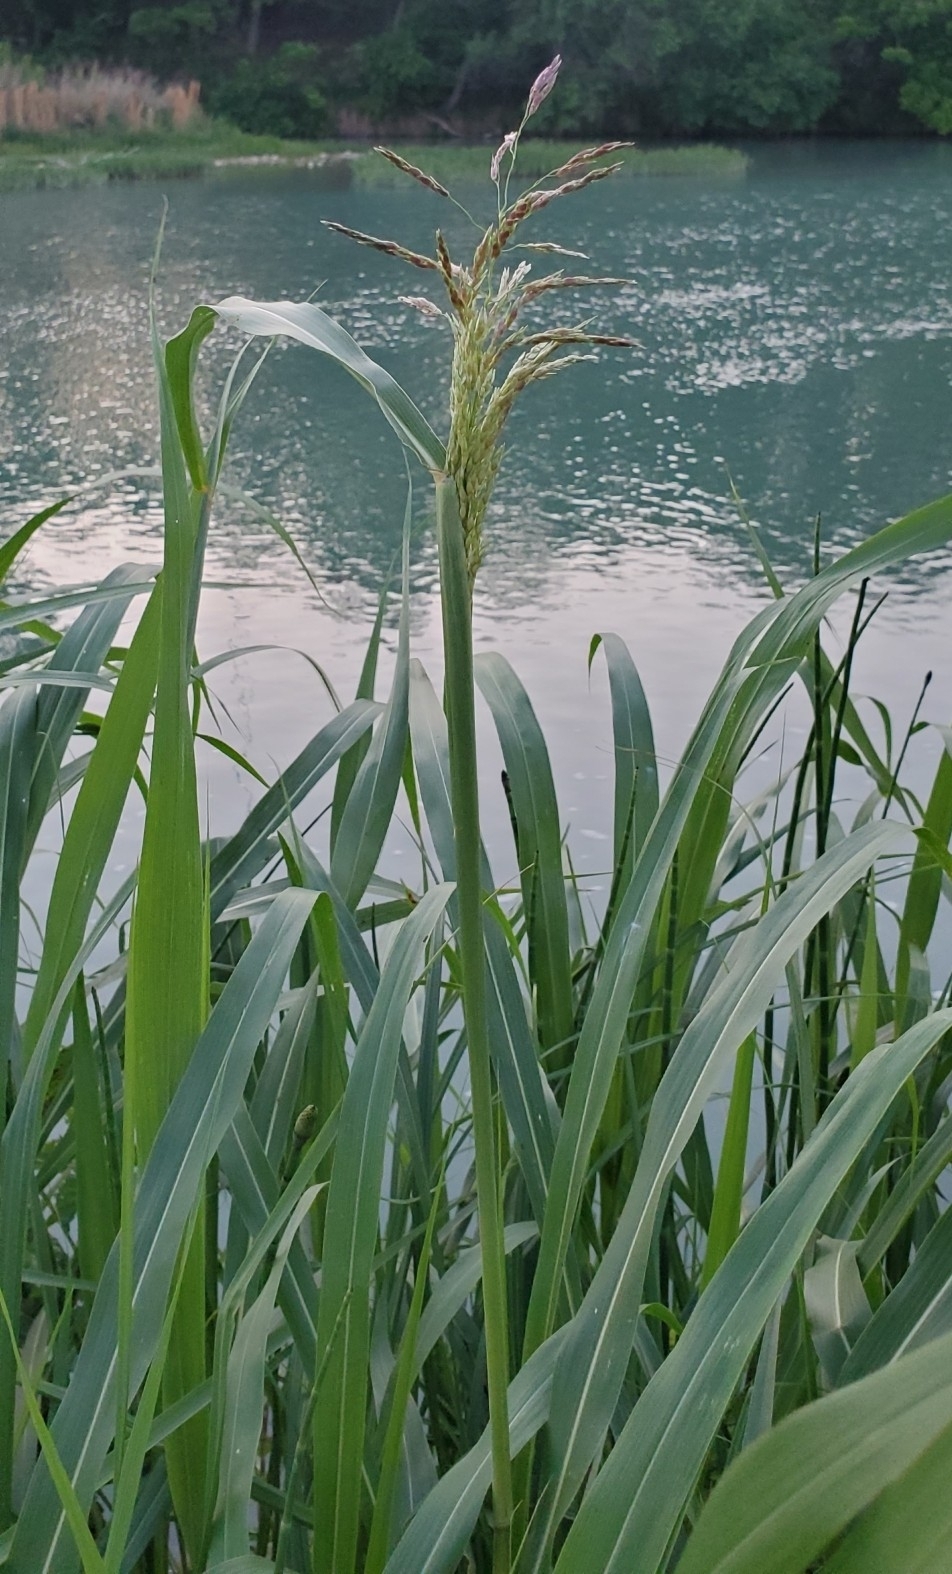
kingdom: Plantae
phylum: Tracheophyta
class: Liliopsida
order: Poales
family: Poaceae
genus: Sorghum
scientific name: Sorghum halepense
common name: Johnson-grass
